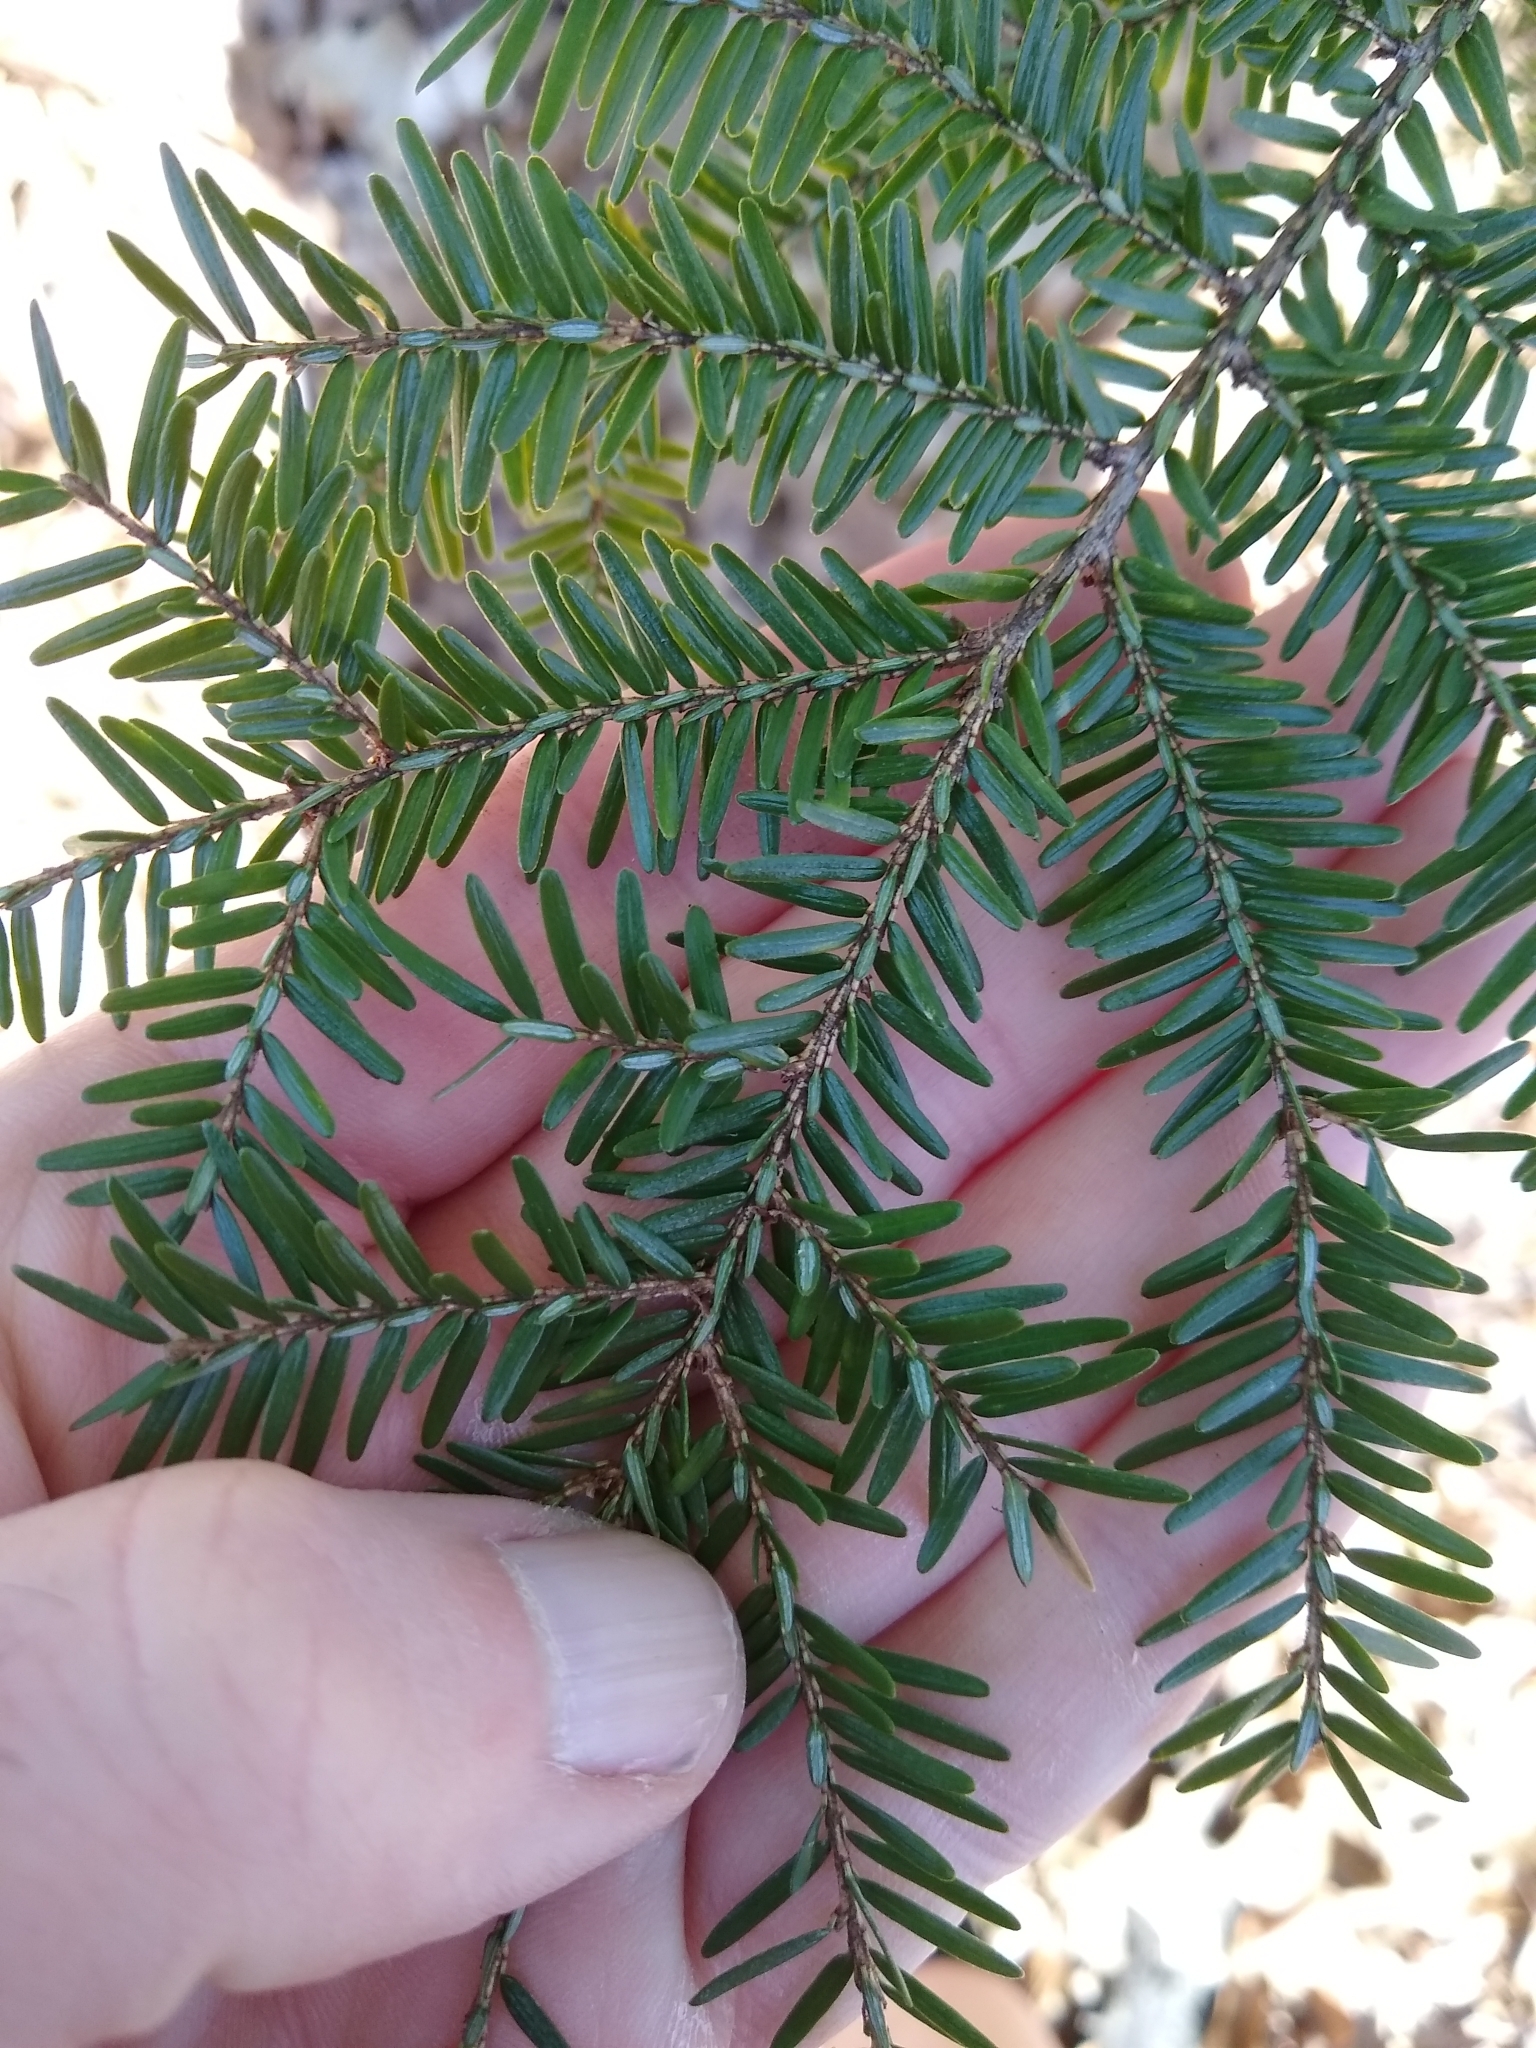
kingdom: Plantae
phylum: Tracheophyta
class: Pinopsida
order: Pinales
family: Pinaceae
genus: Tsuga
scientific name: Tsuga canadensis
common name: Eastern hemlock
